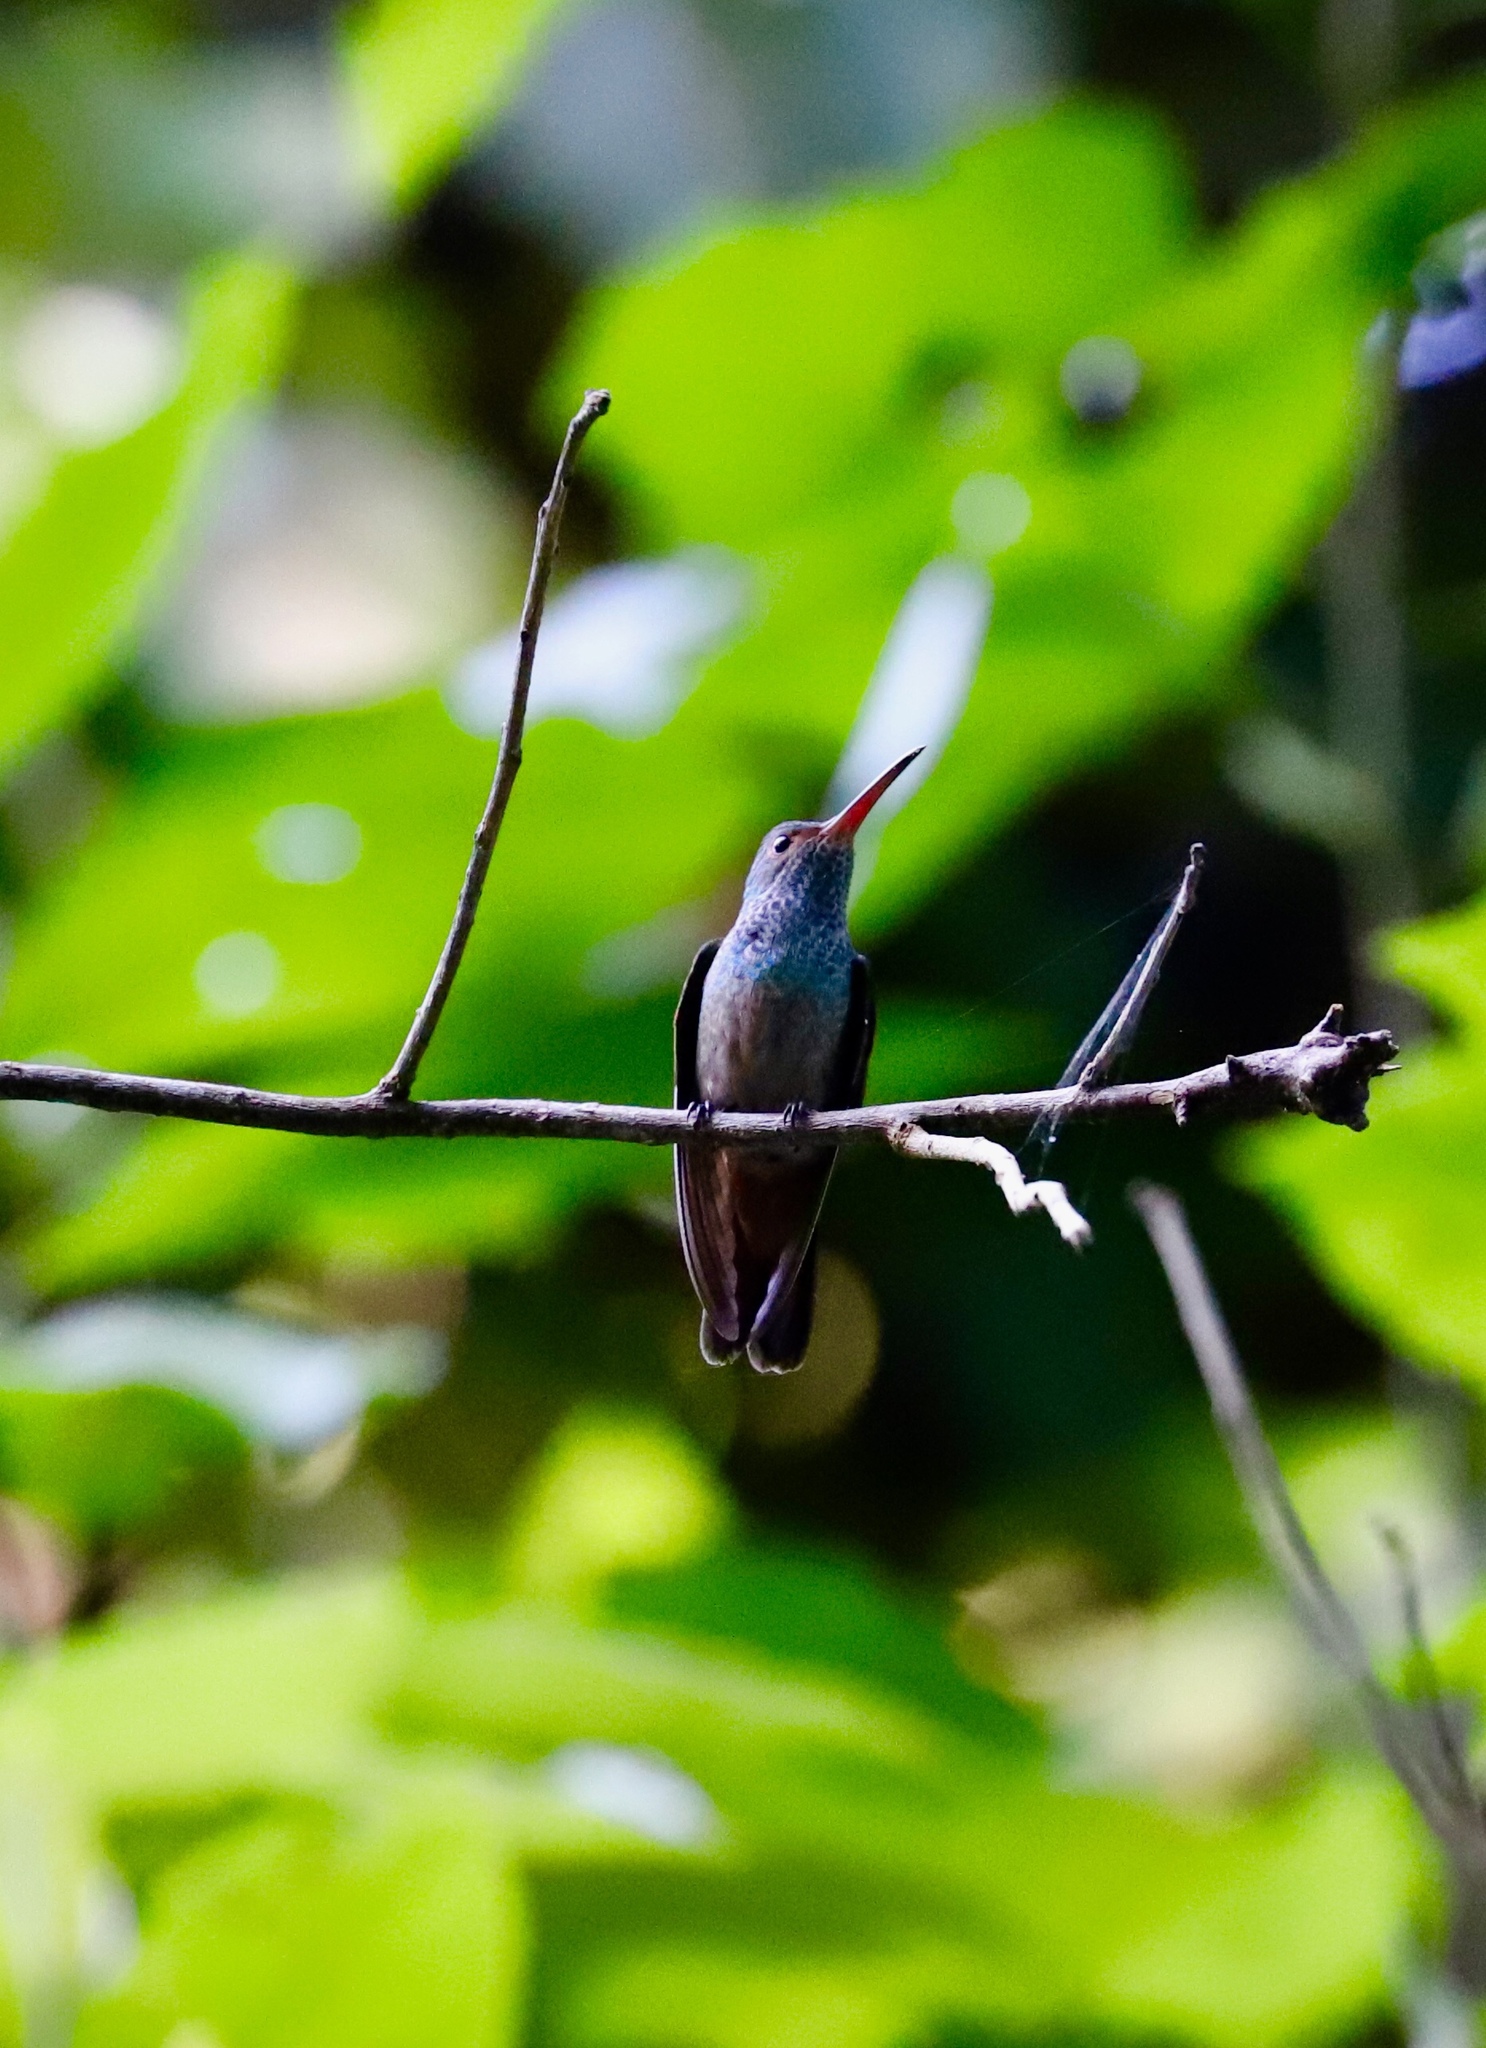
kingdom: Animalia
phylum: Chordata
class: Aves
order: Apodiformes
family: Trochilidae
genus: Amazilia
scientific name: Amazilia tzacatl
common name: Rufous-tailed hummingbird
